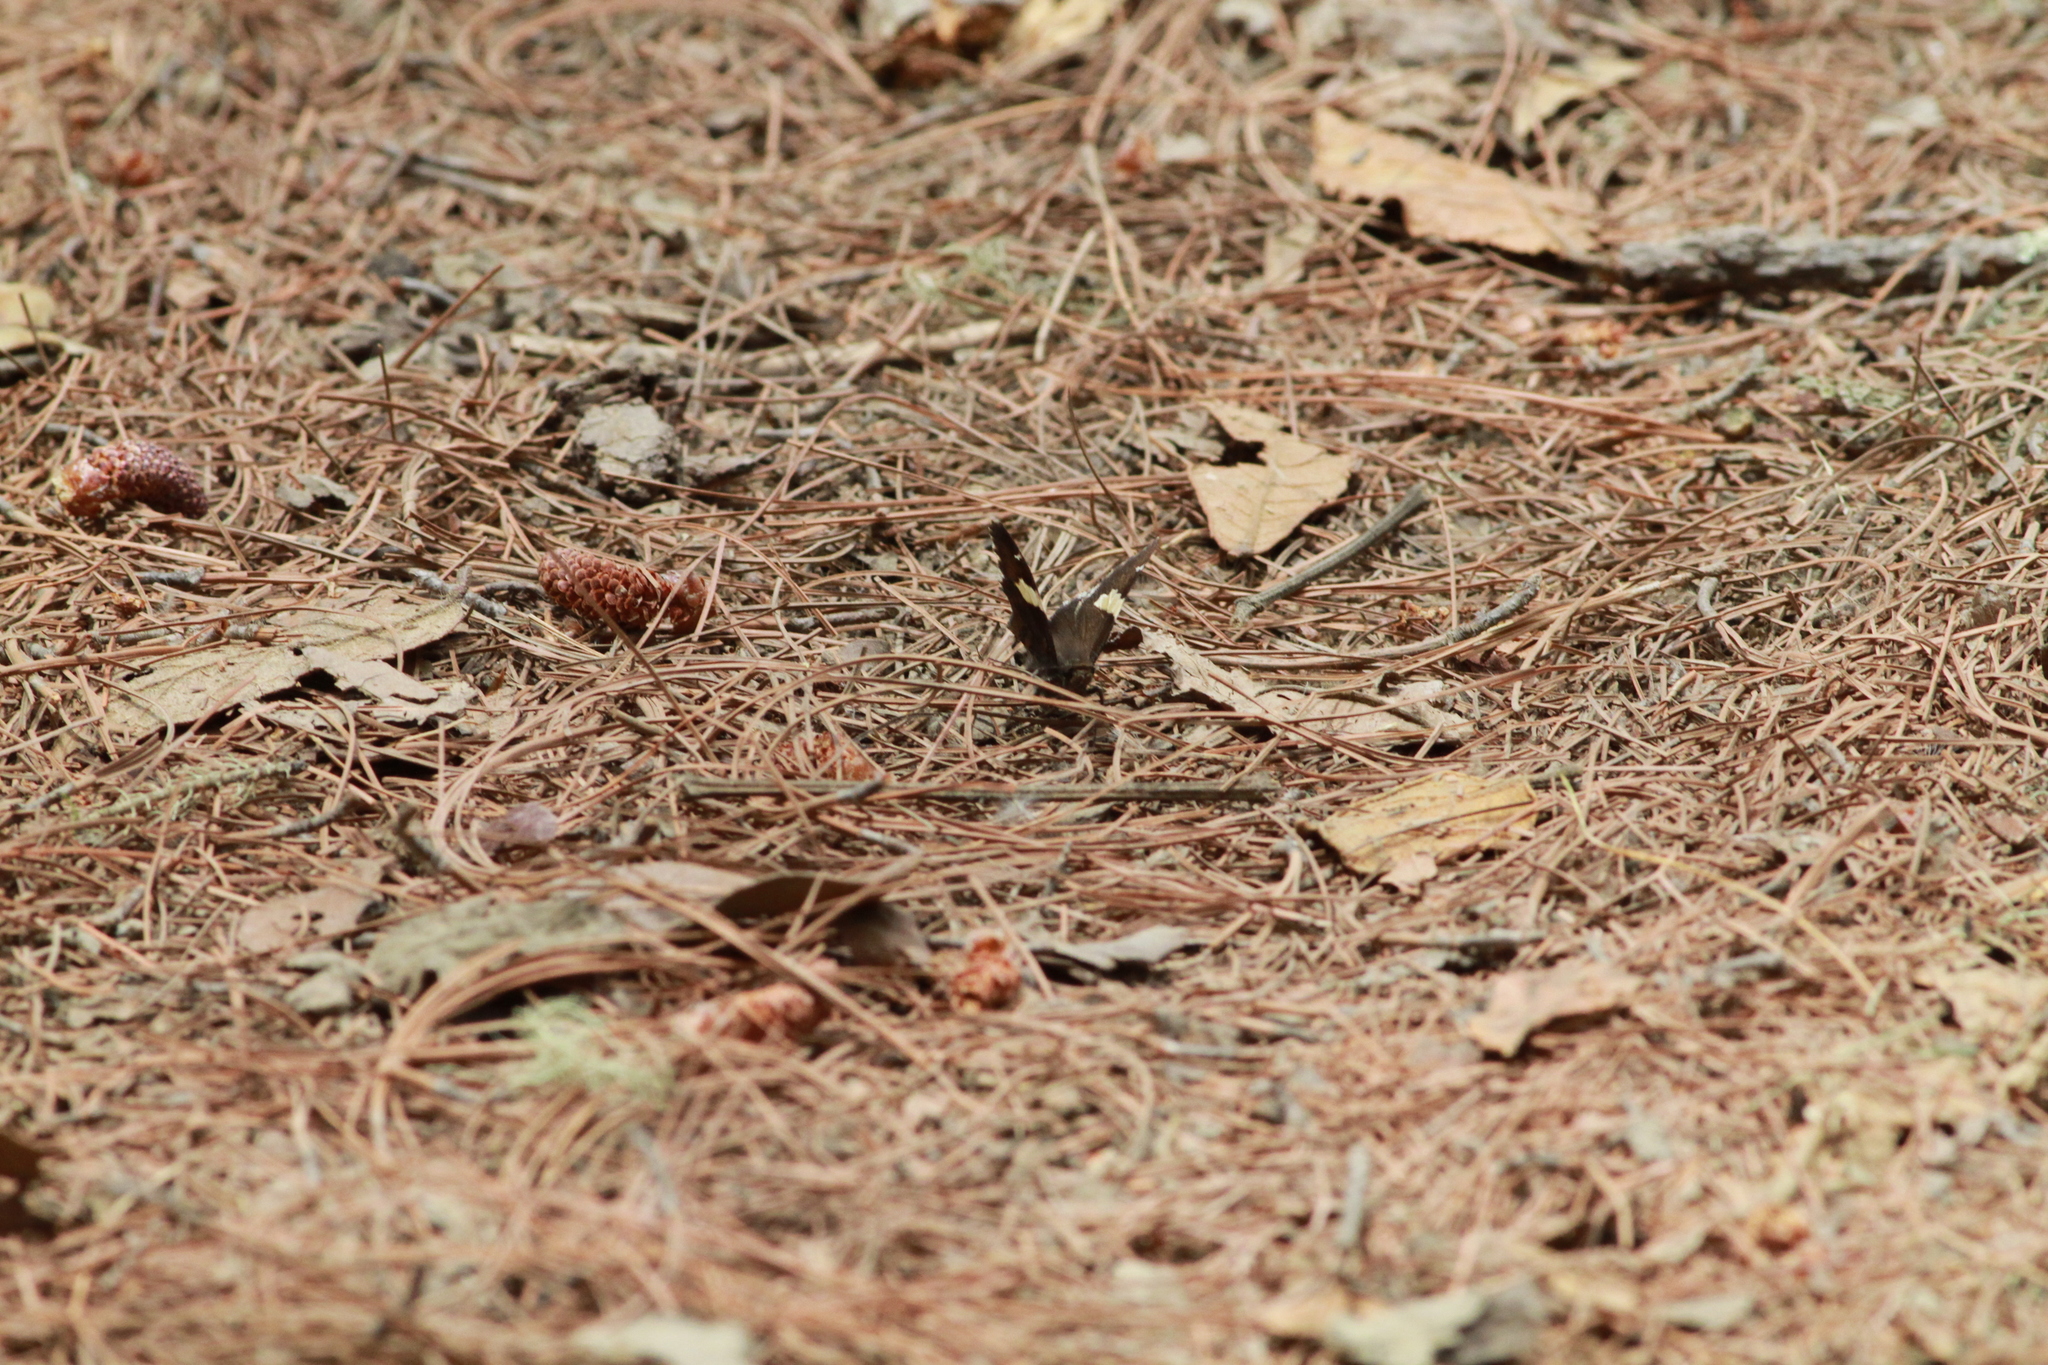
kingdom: Animalia
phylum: Arthropoda
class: Arachnida
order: Scorpiones
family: Bothriuridae
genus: Telegonus
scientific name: Telegonus cellus
